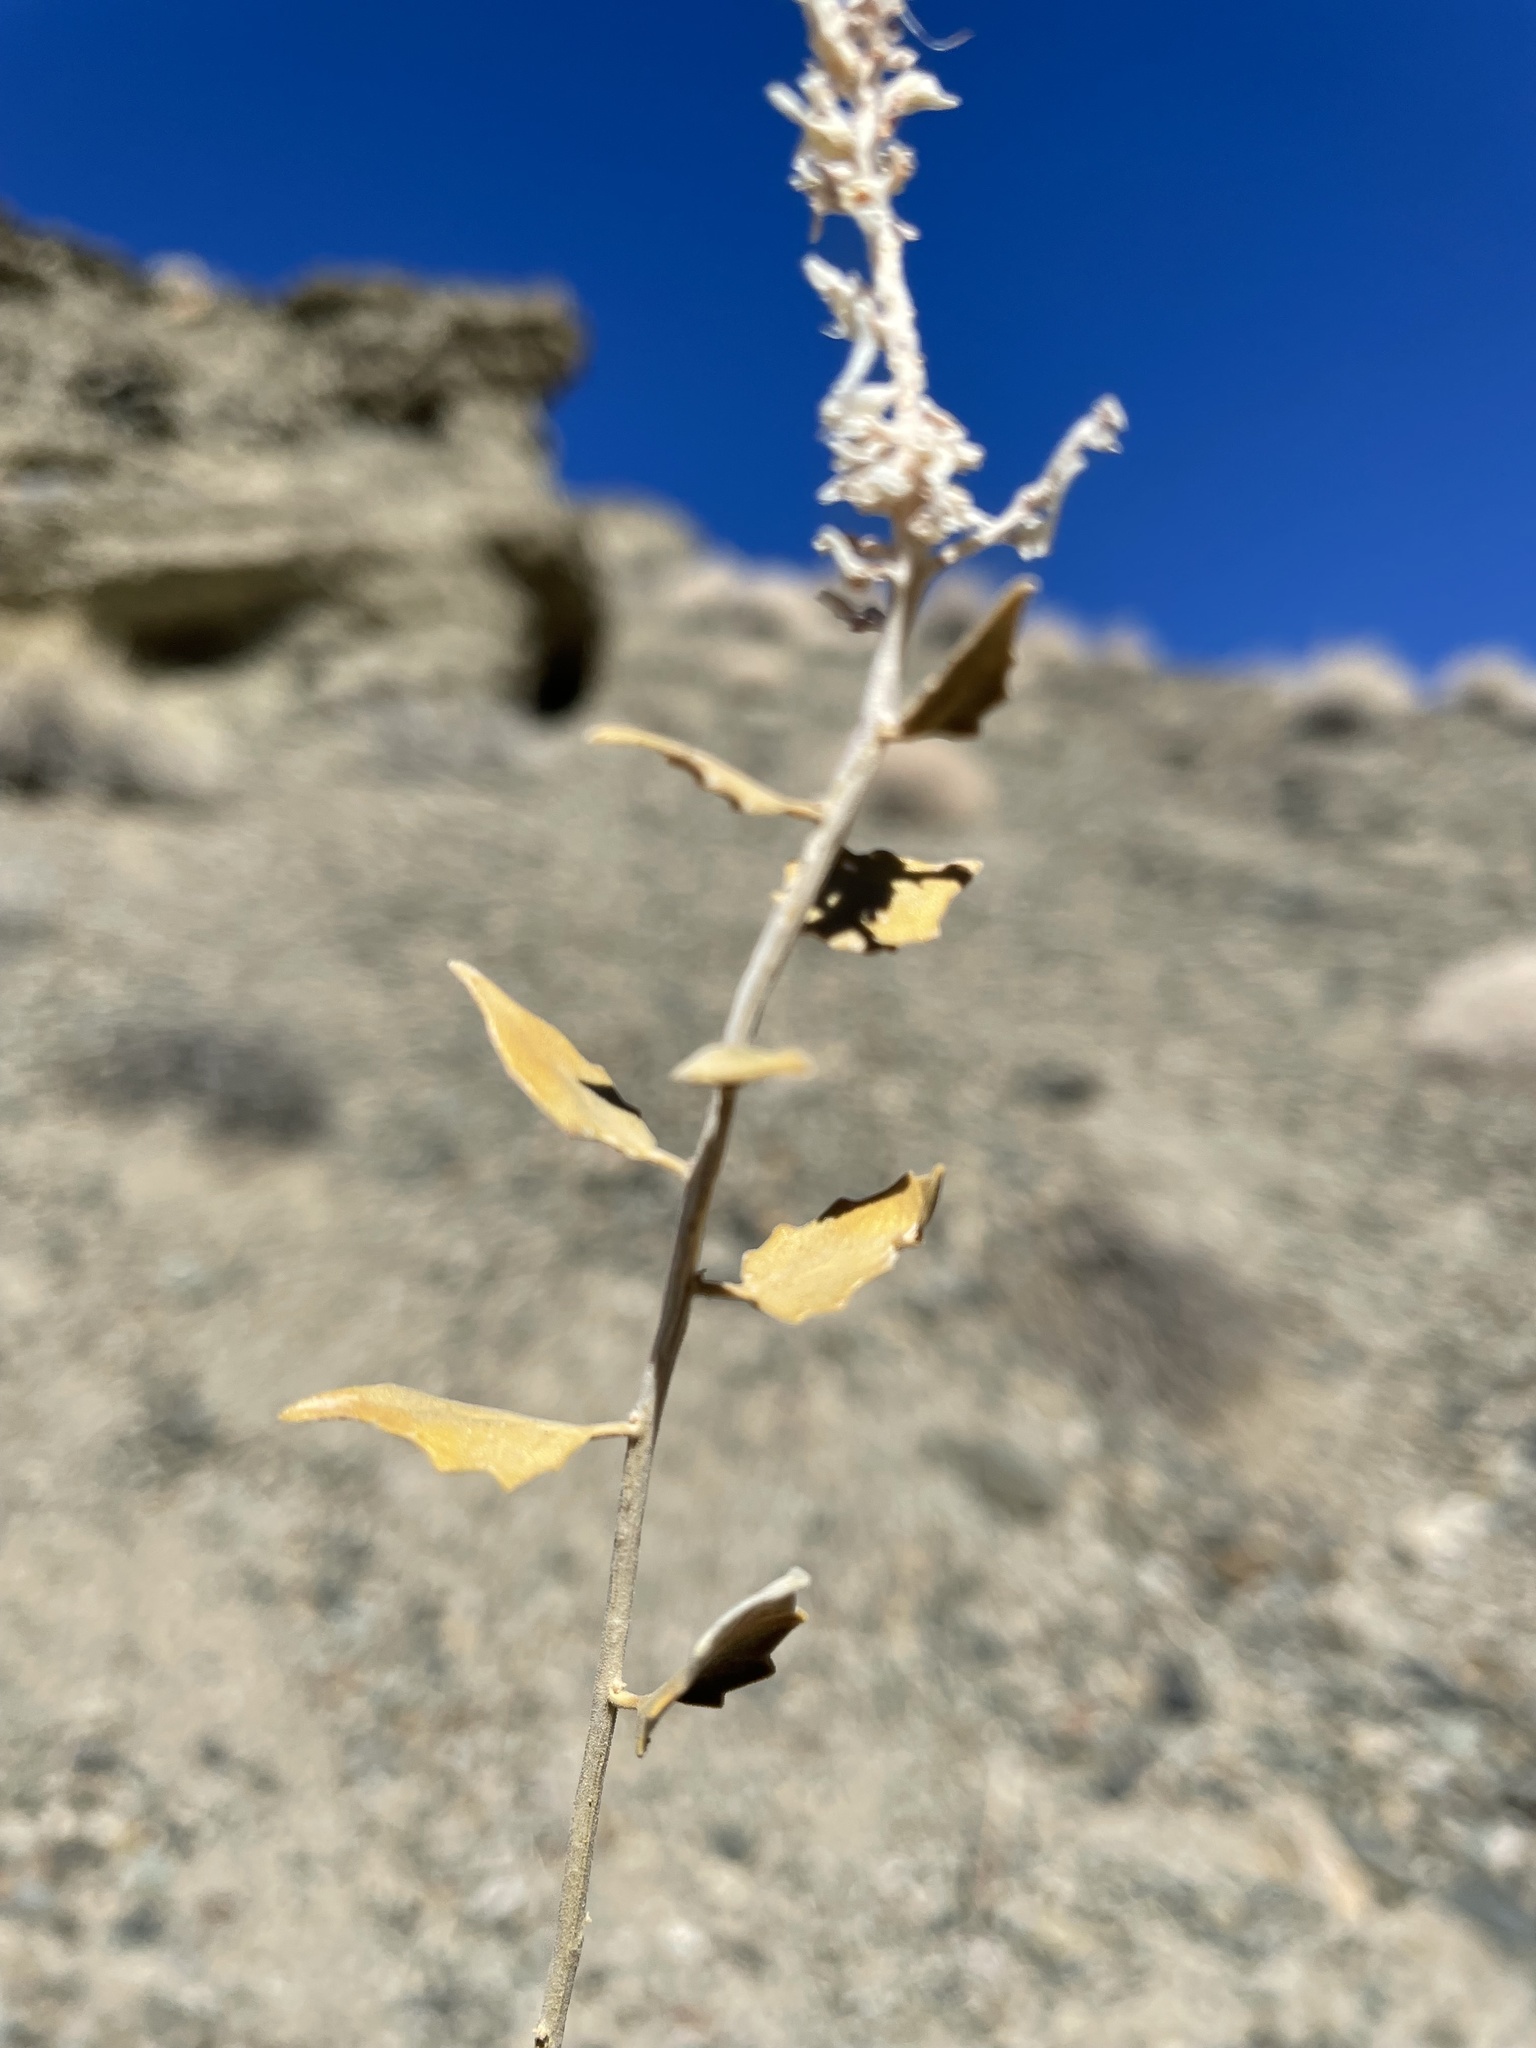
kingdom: Plantae
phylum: Tracheophyta
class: Magnoliopsida
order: Cornales
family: Loasaceae
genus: Petalonyx
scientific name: Petalonyx nitidus
